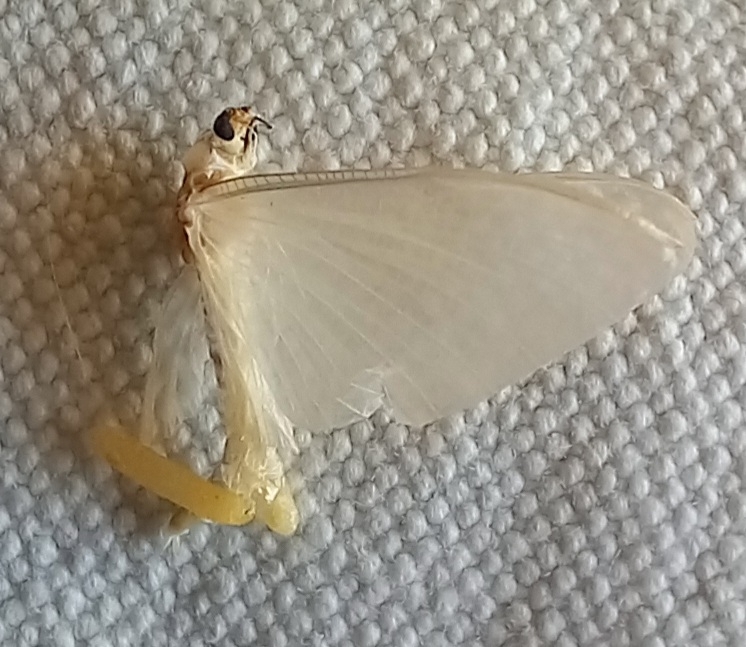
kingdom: Animalia
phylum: Arthropoda
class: Insecta
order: Ephemeroptera
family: Polymitarcyidae
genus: Ephoron
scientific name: Ephoron virgo
